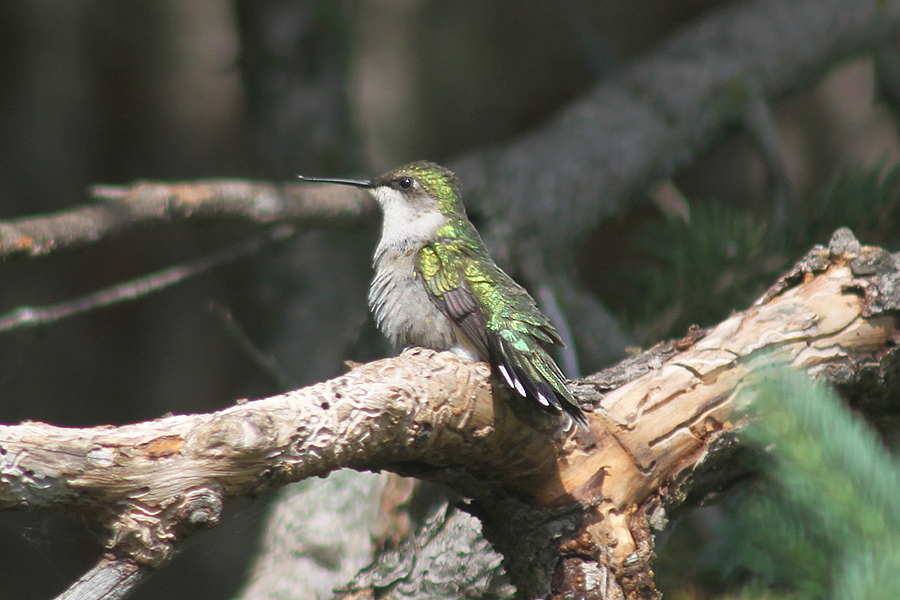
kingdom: Animalia
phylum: Chordata
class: Aves
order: Apodiformes
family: Trochilidae
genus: Archilochus
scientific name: Archilochus colubris
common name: Ruby-throated hummingbird
